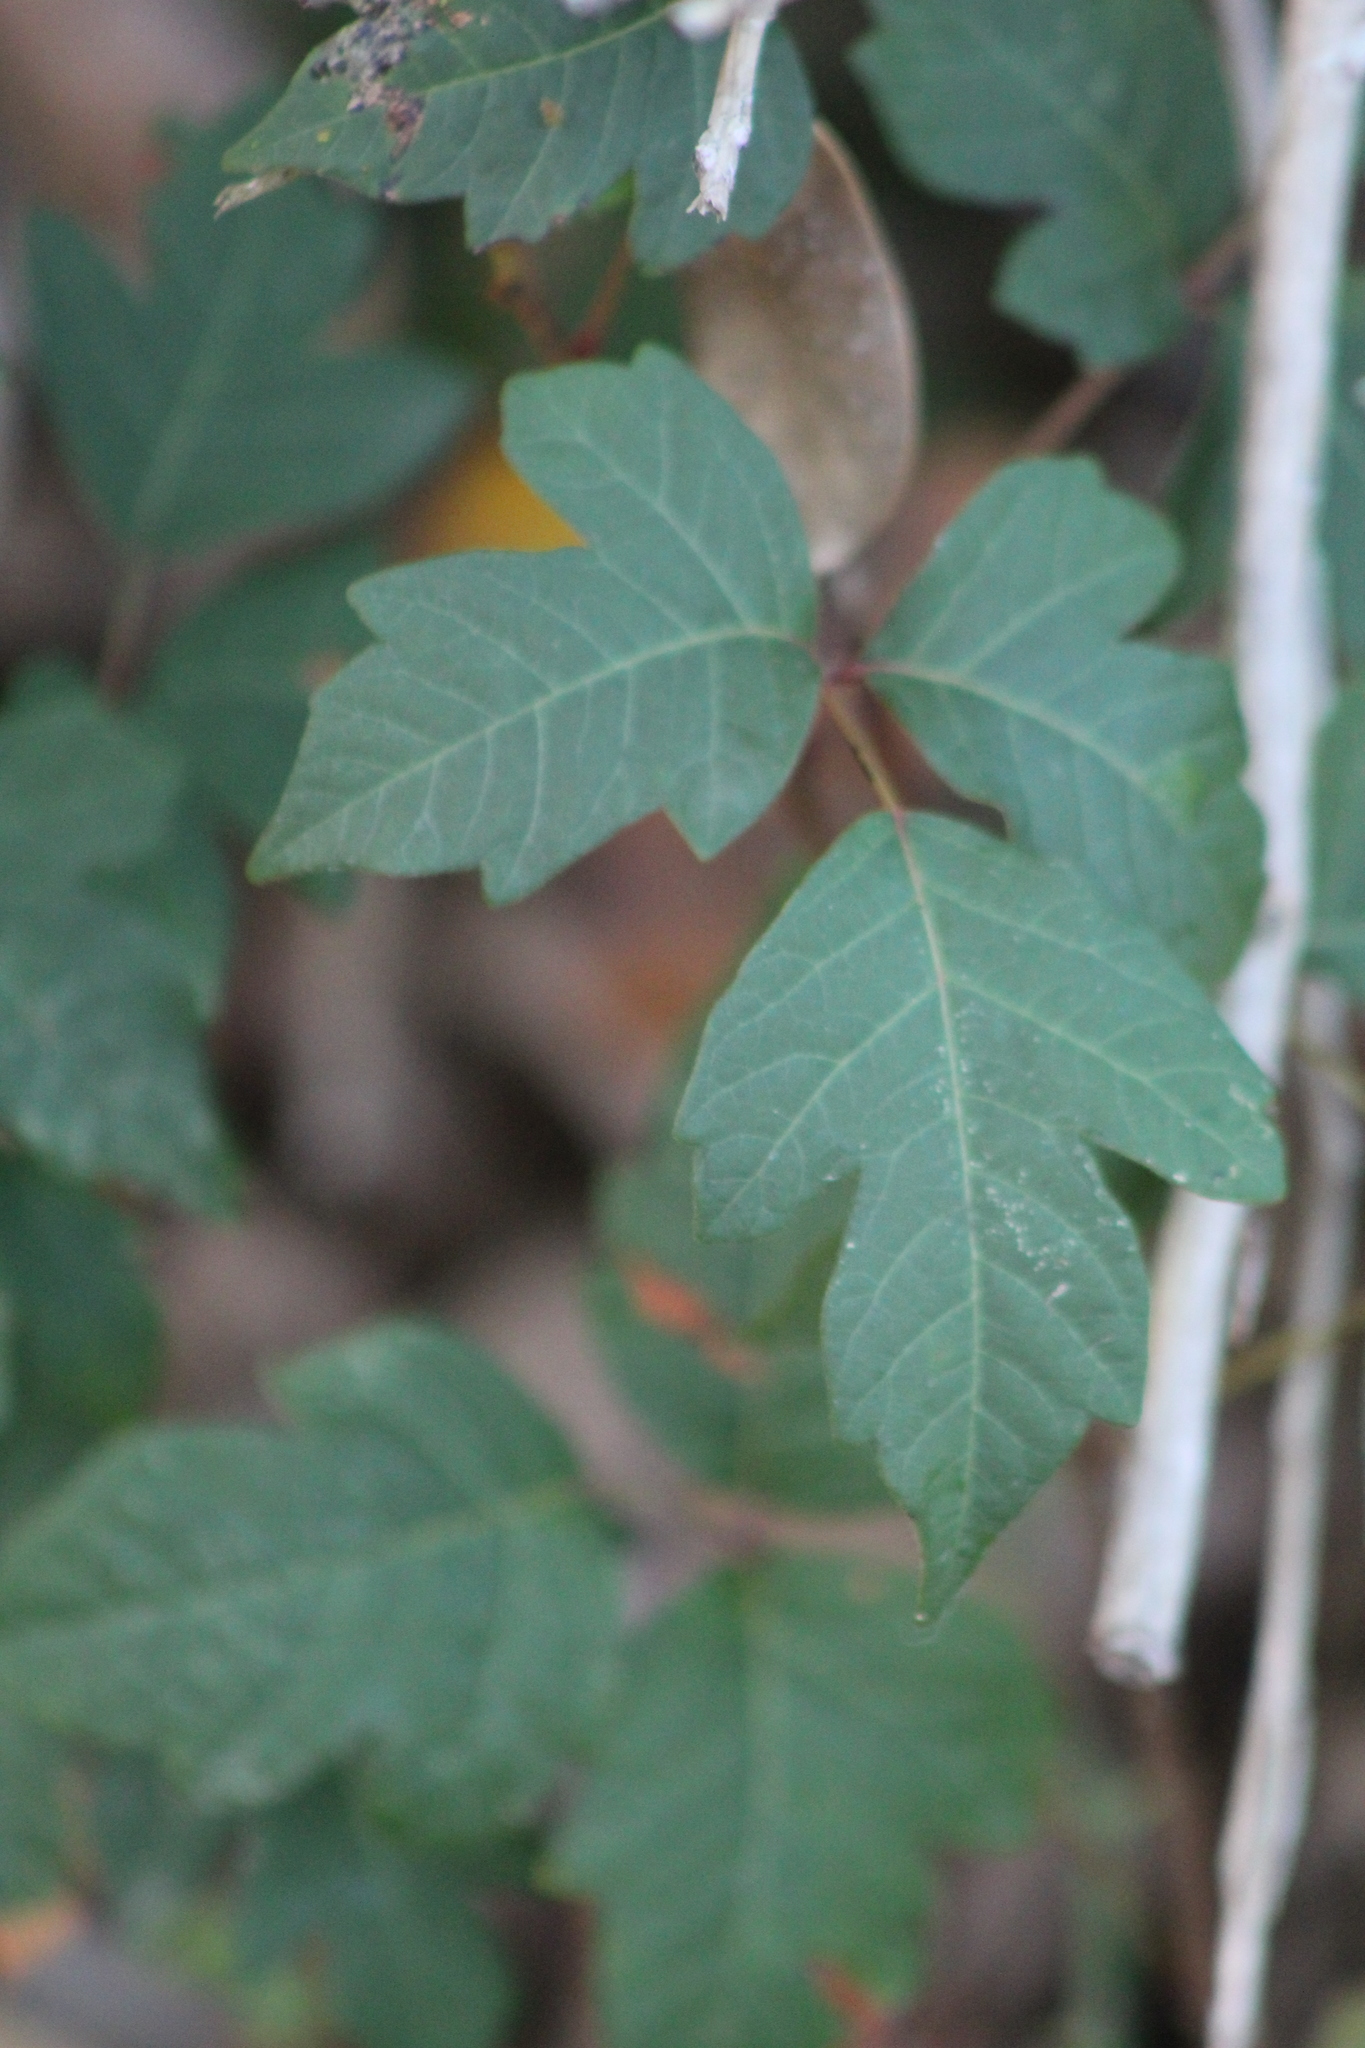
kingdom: Plantae
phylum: Tracheophyta
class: Magnoliopsida
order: Sapindales
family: Anacardiaceae
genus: Toxicodendron
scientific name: Toxicodendron radicans
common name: Poison ivy
